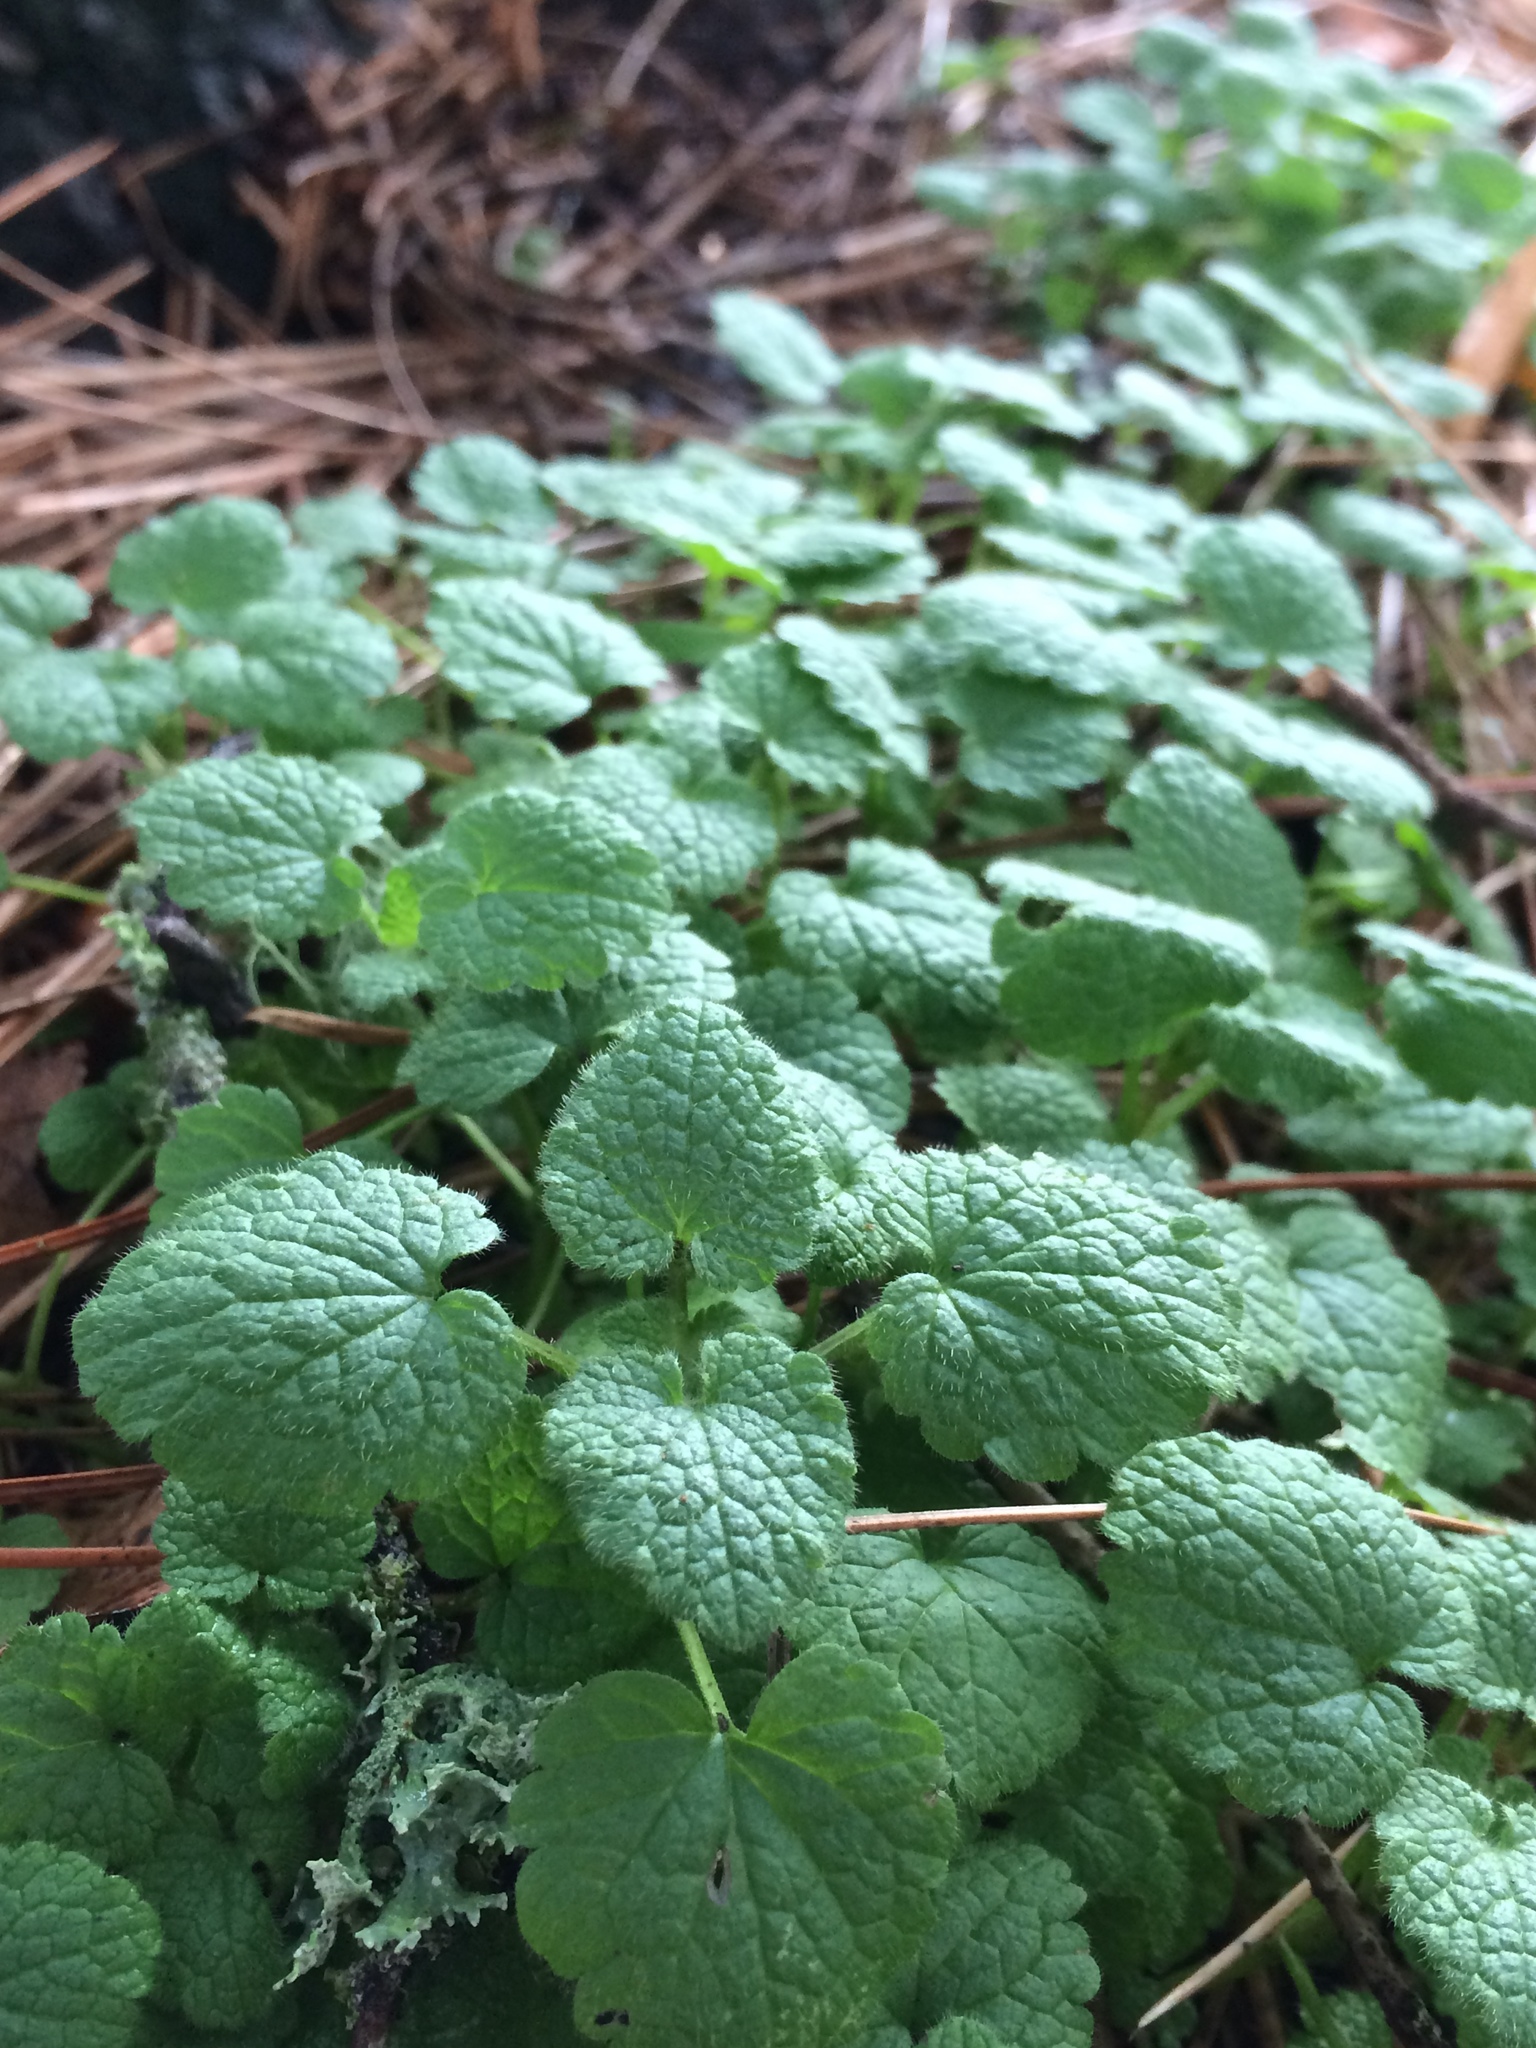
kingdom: Plantae
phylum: Tracheophyta
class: Magnoliopsida
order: Lamiales
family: Lamiaceae
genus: Lamium
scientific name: Lamium purpureum
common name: Red dead-nettle
